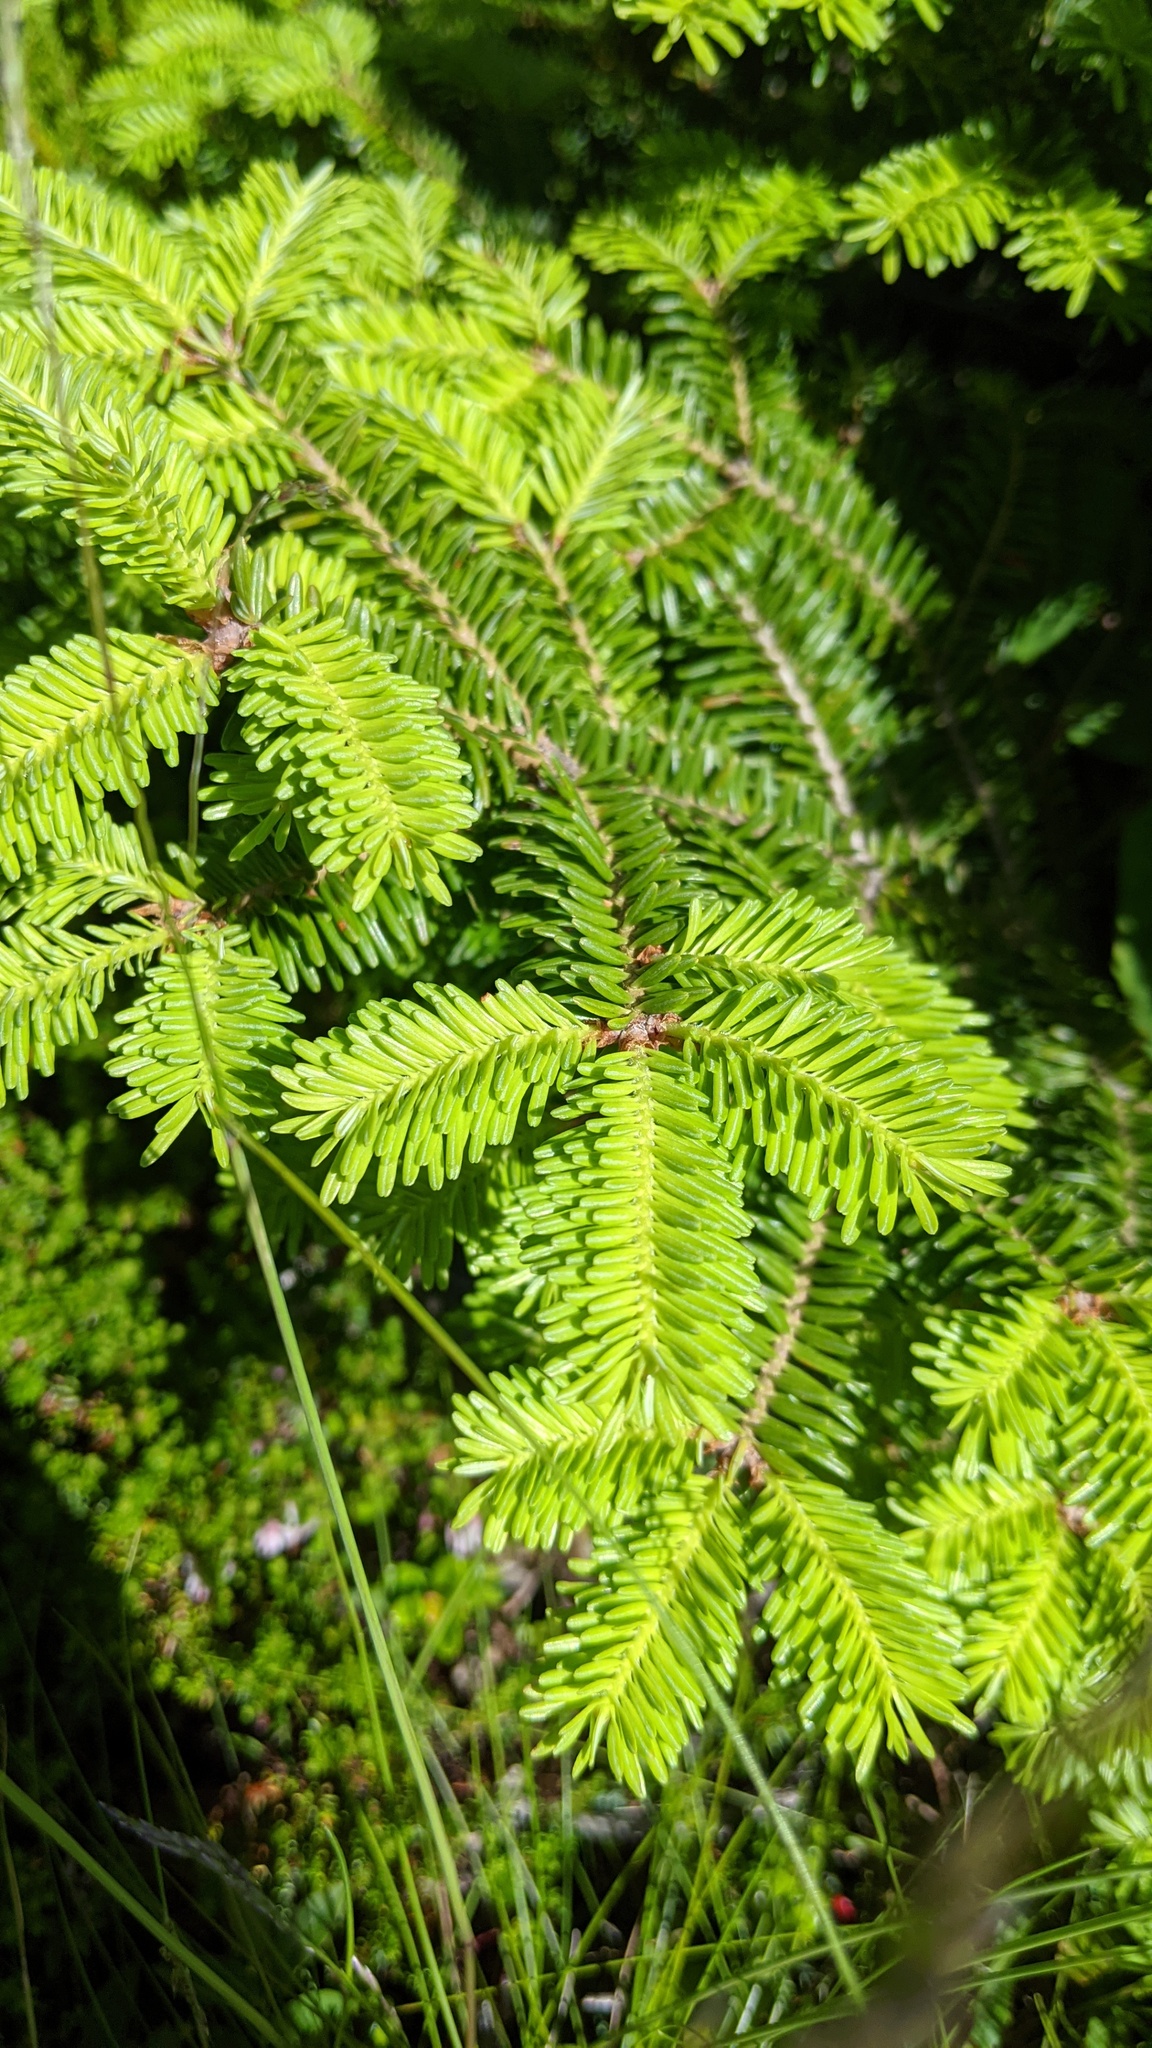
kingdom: Plantae
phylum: Tracheophyta
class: Pinopsida
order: Pinales
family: Pinaceae
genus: Abies
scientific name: Abies balsamea
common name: Balsam fir
